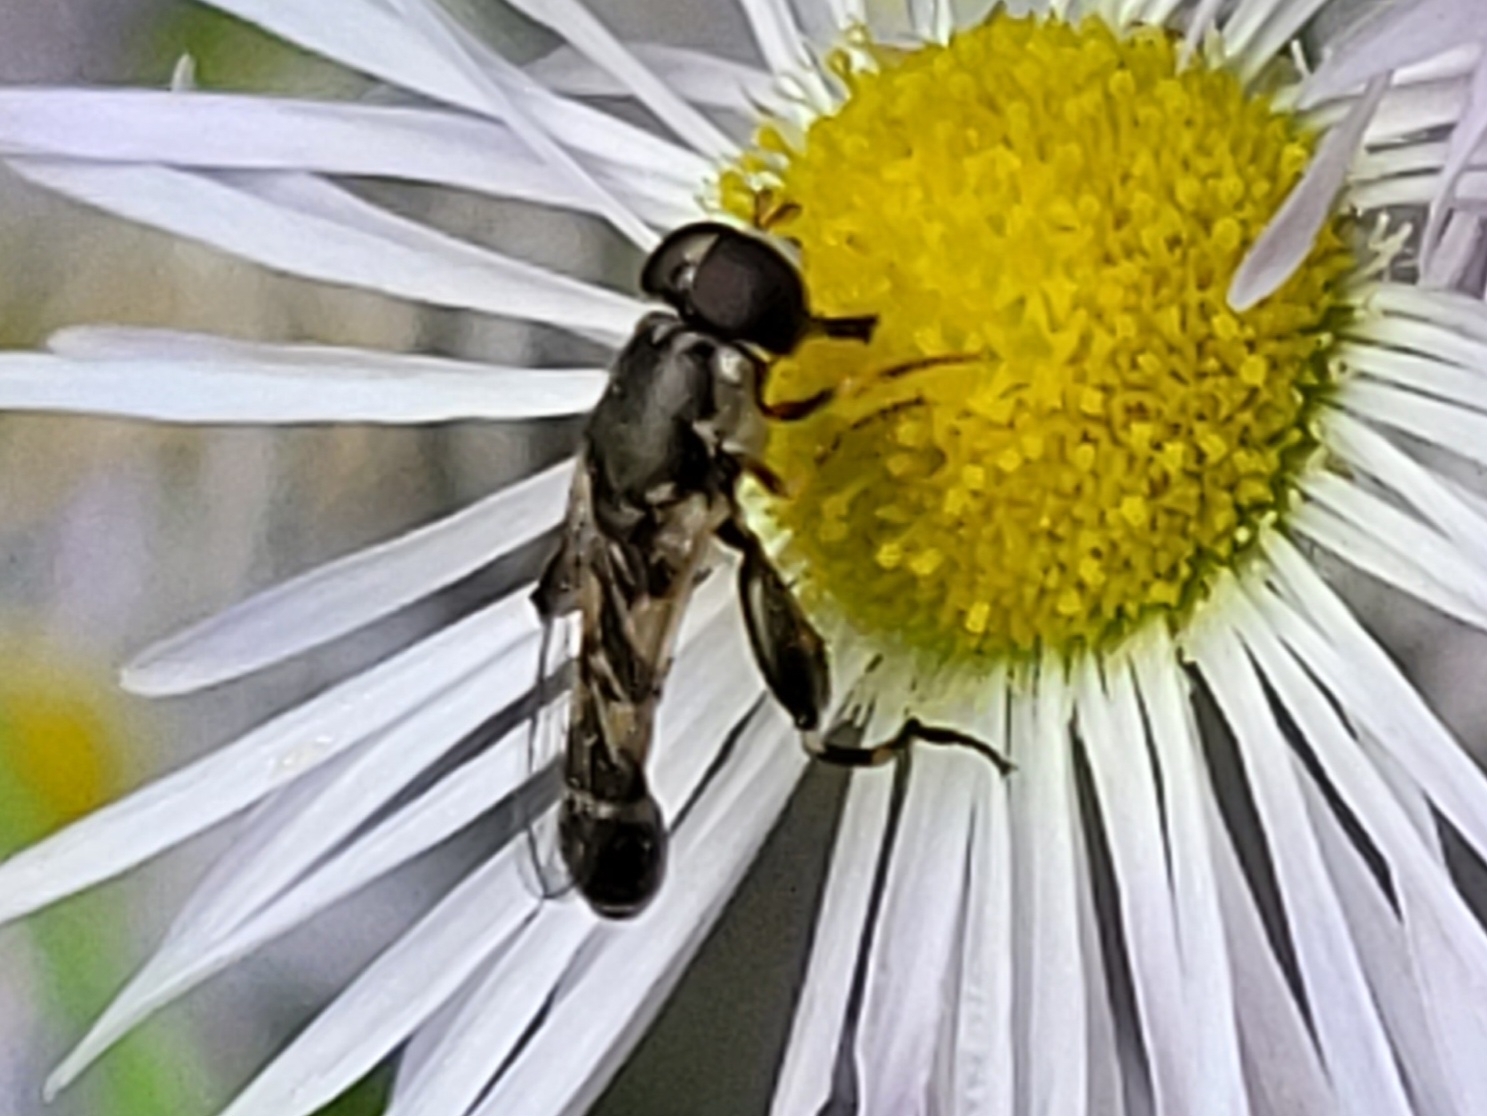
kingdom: Animalia
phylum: Arthropoda
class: Insecta
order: Diptera
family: Syrphidae
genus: Syritta
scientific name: Syritta pipiens
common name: Hover fly
